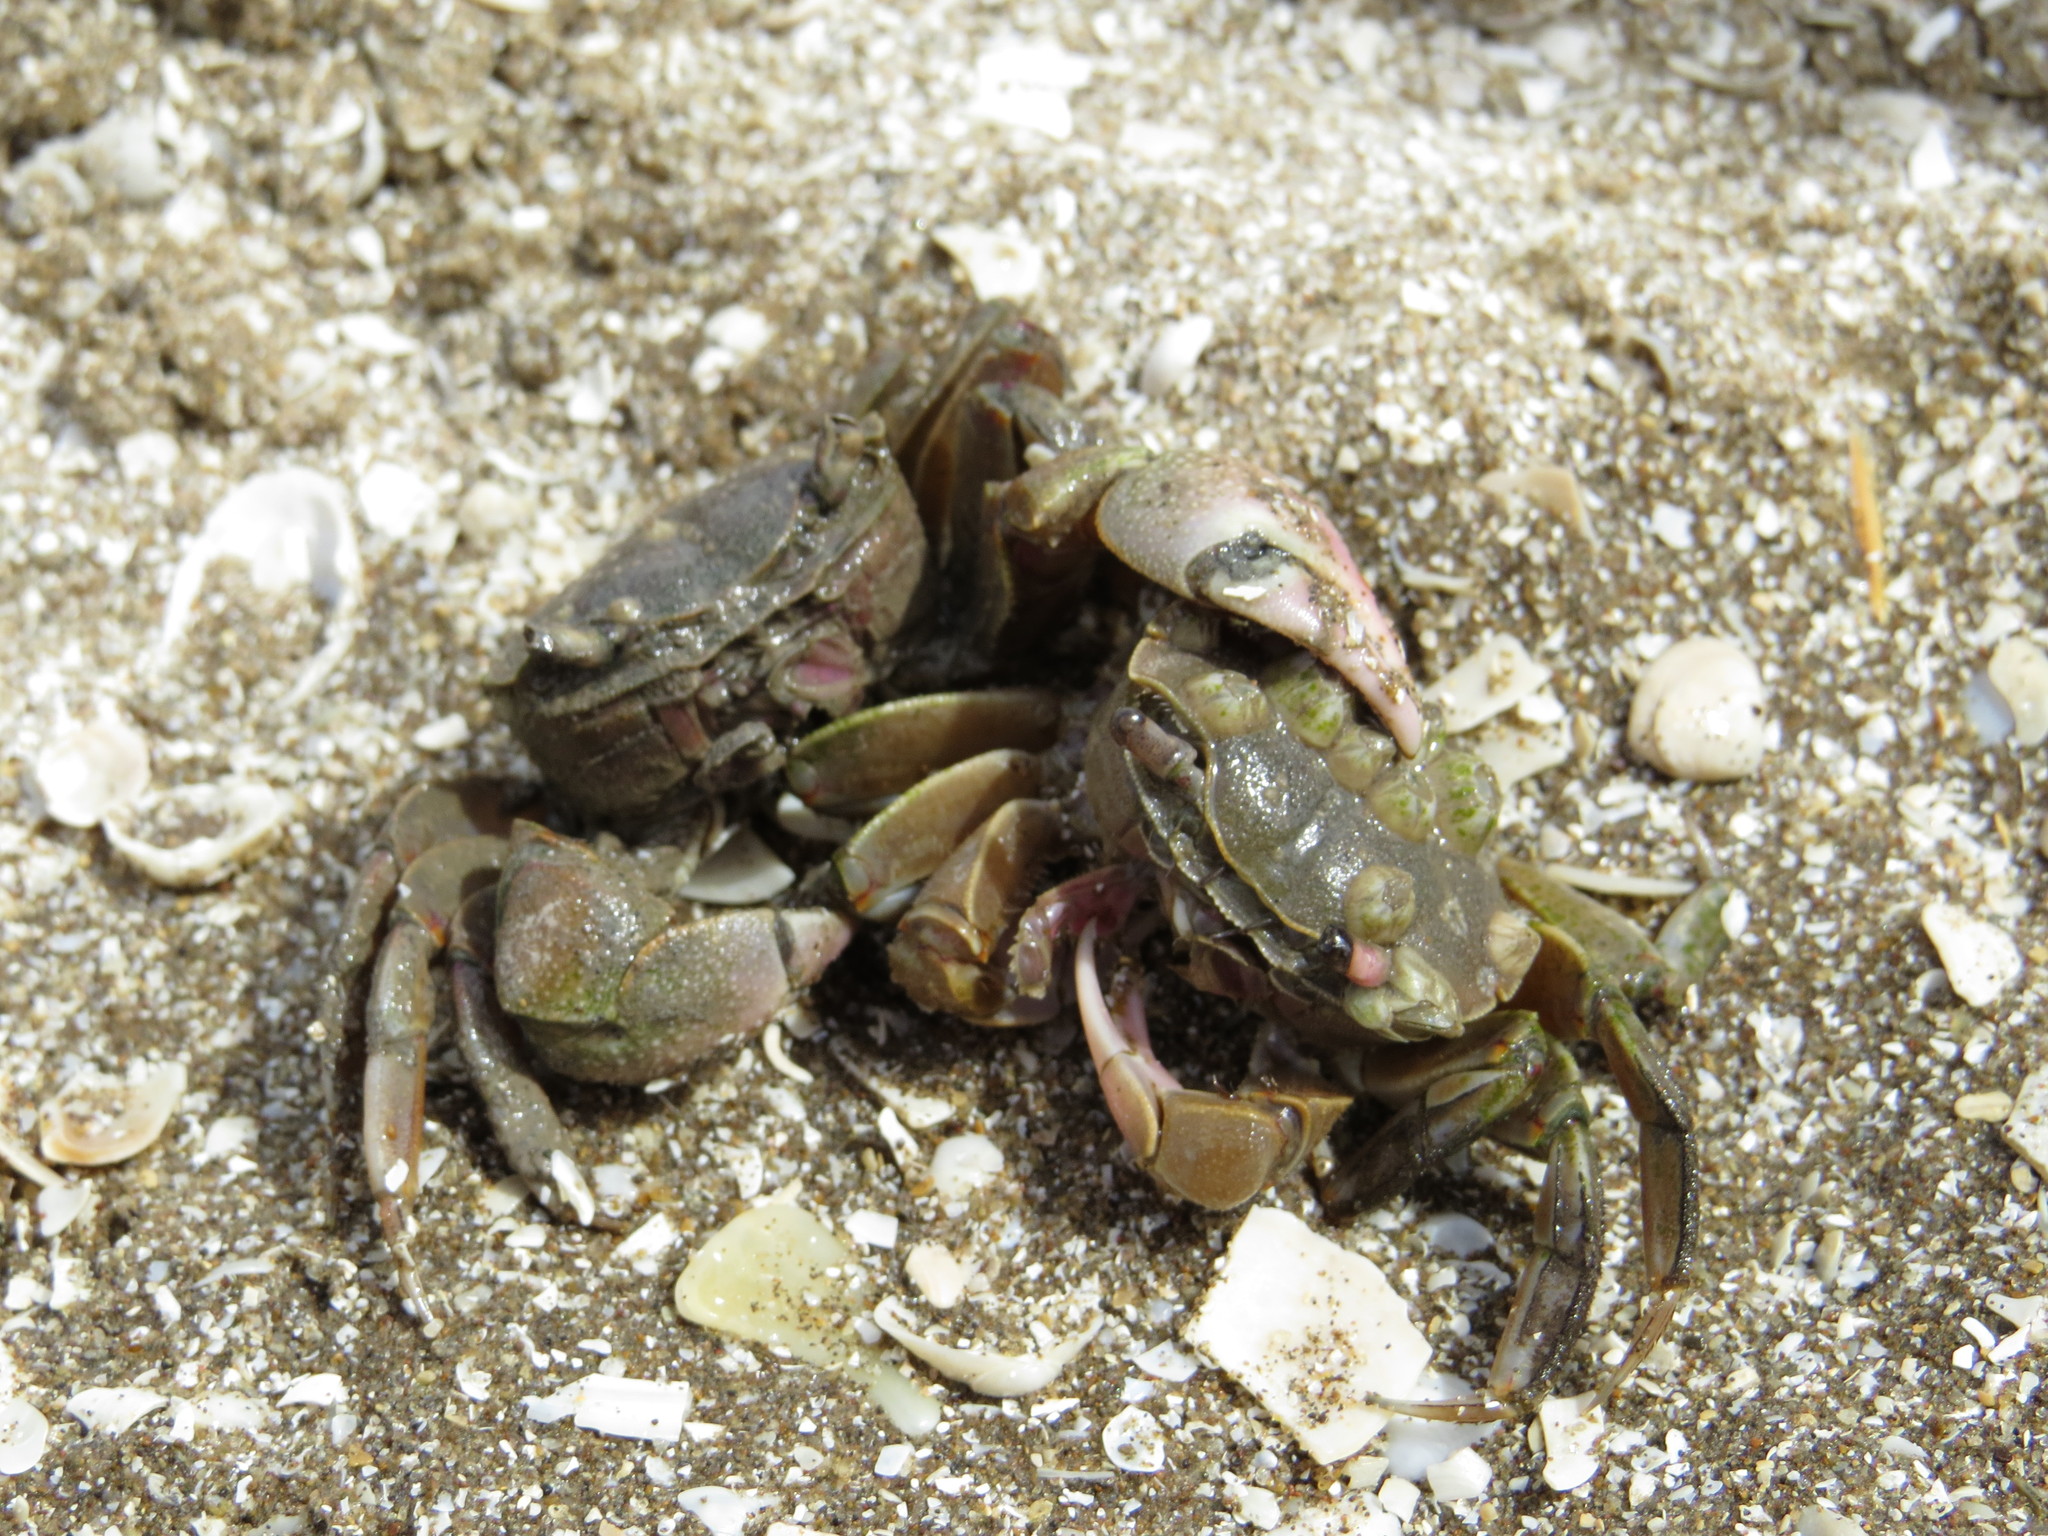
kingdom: Animalia
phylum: Arthropoda
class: Malacostraca
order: Decapoda
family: Varunidae
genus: Neohelice
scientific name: Neohelice granulata
